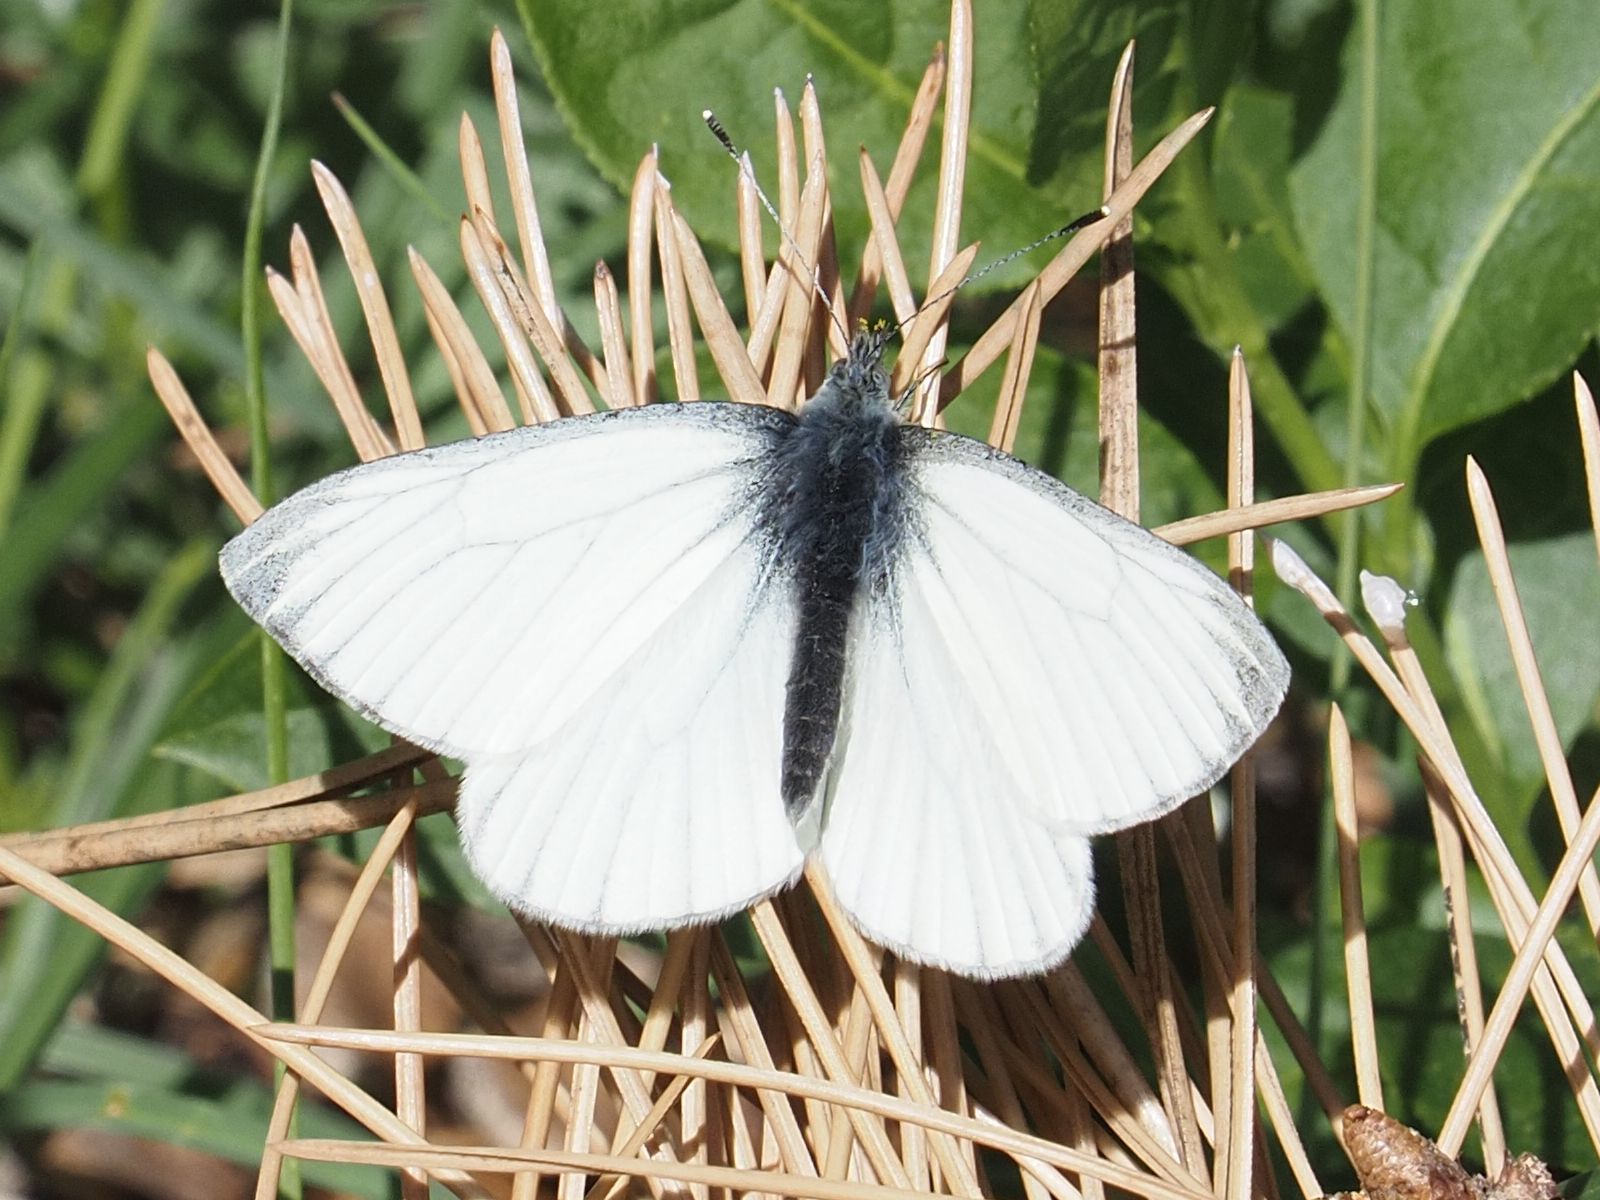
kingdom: Animalia
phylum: Arthropoda
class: Insecta
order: Lepidoptera
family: Pieridae
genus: Pieris
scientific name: Pieris napi
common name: Green-veined white
